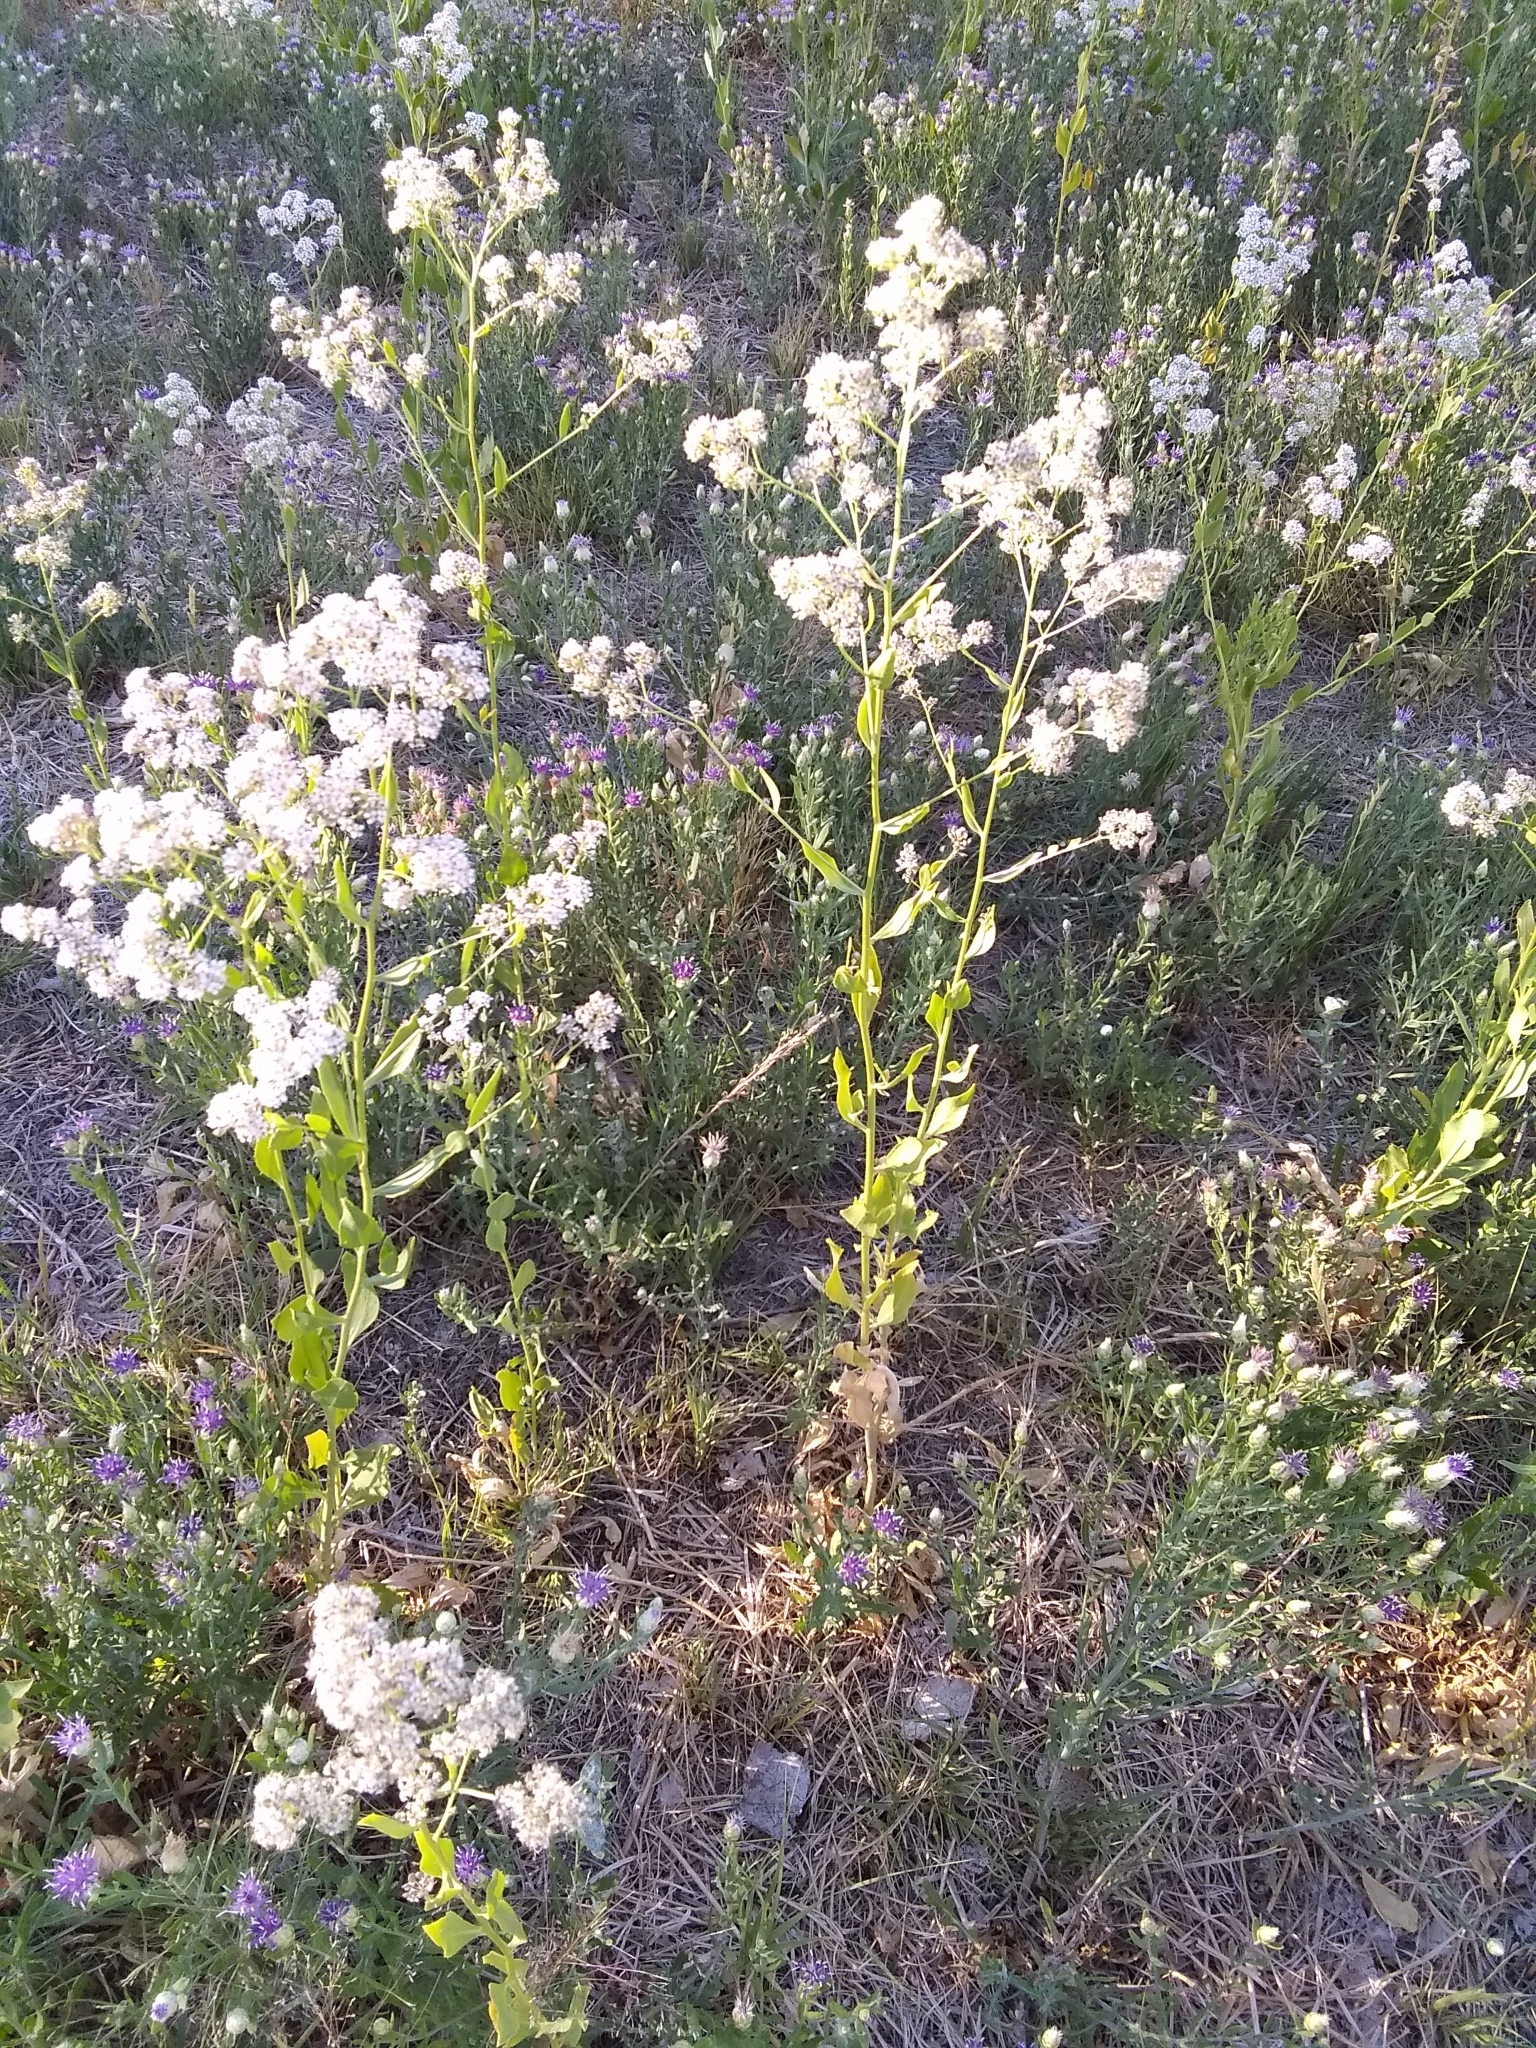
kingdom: Plantae
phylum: Tracheophyta
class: Magnoliopsida
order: Brassicales
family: Brassicaceae
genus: Lepidium
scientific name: Lepidium latifolium
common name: Dittander
